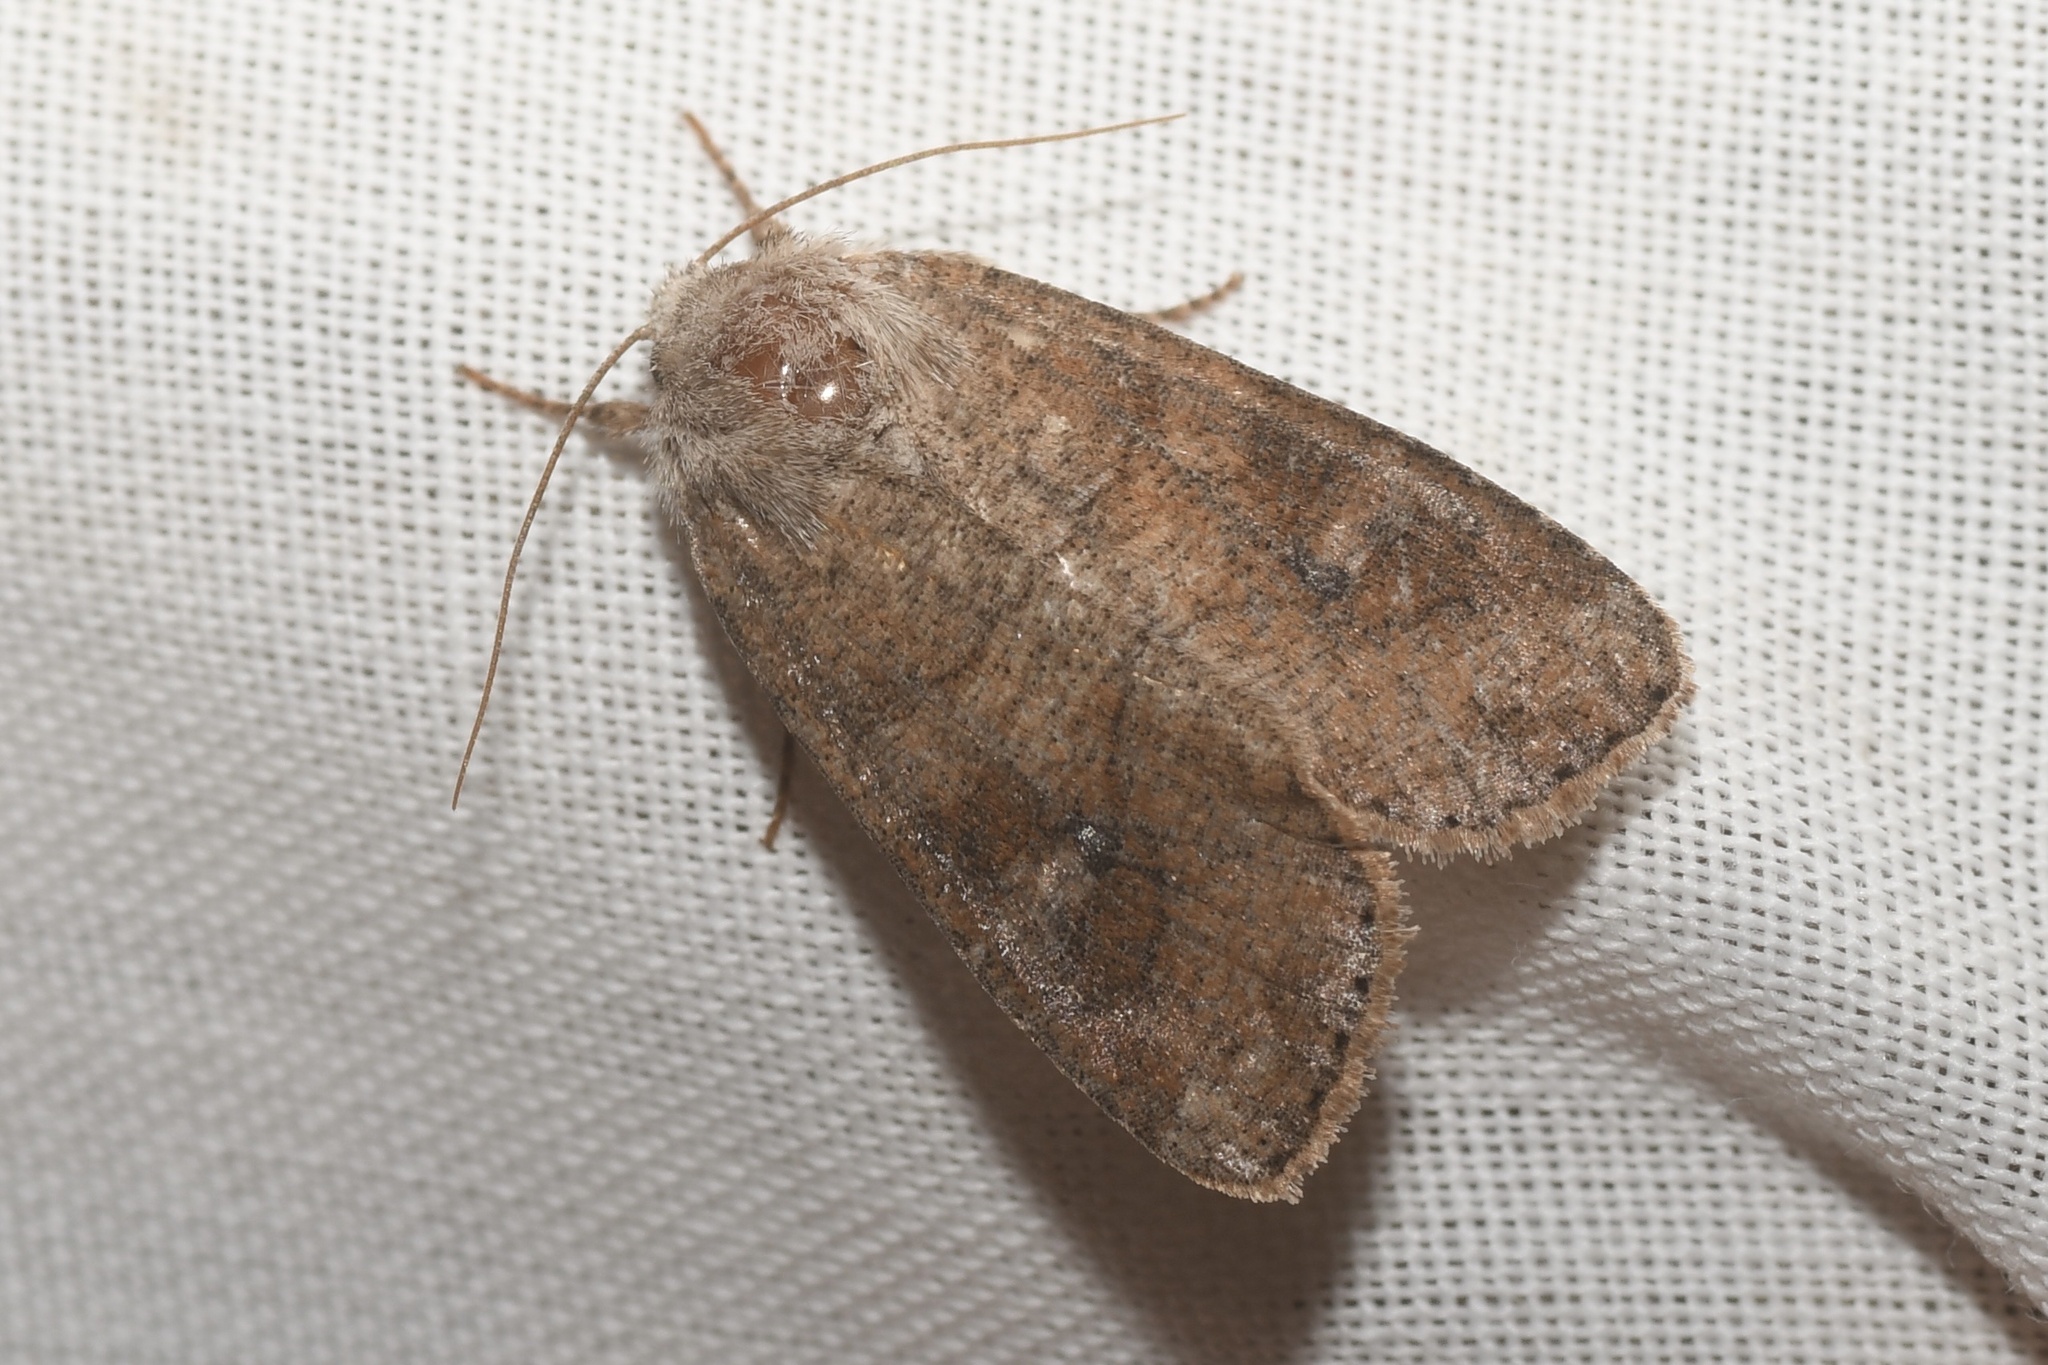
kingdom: Animalia
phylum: Arthropoda
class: Insecta
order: Lepidoptera
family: Noctuidae
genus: Crocigrapha
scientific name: Crocigrapha normani
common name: Norman's quaker
